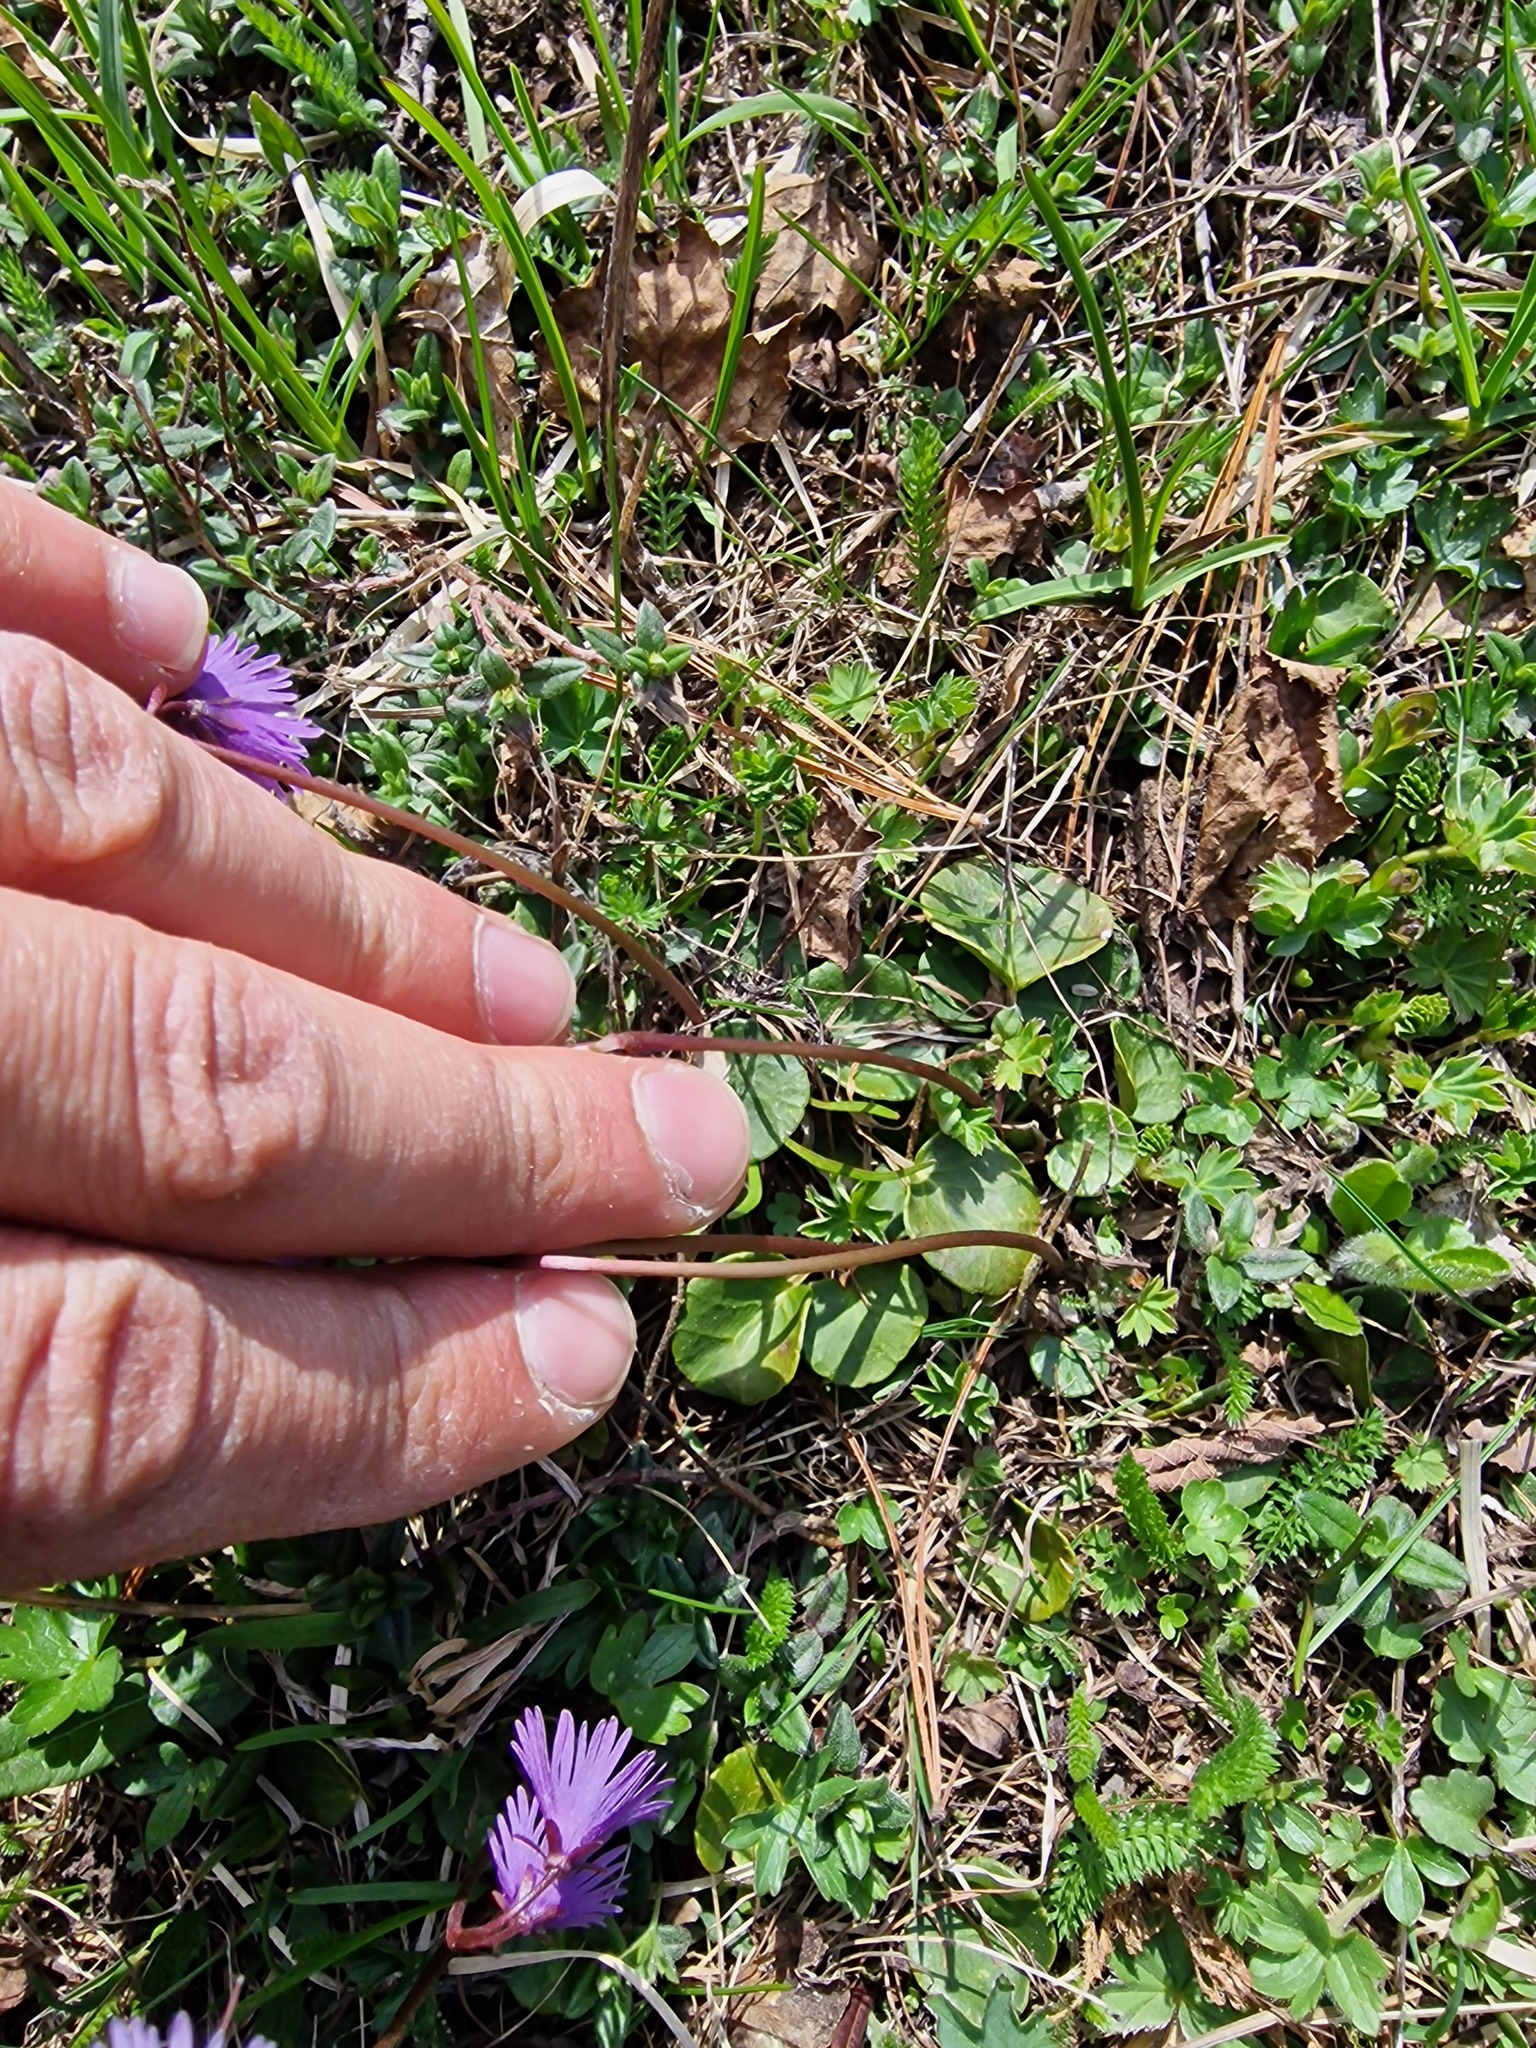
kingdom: Plantae
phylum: Tracheophyta
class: Magnoliopsida
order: Ericales
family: Primulaceae
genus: Soldanella
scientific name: Soldanella alpina
